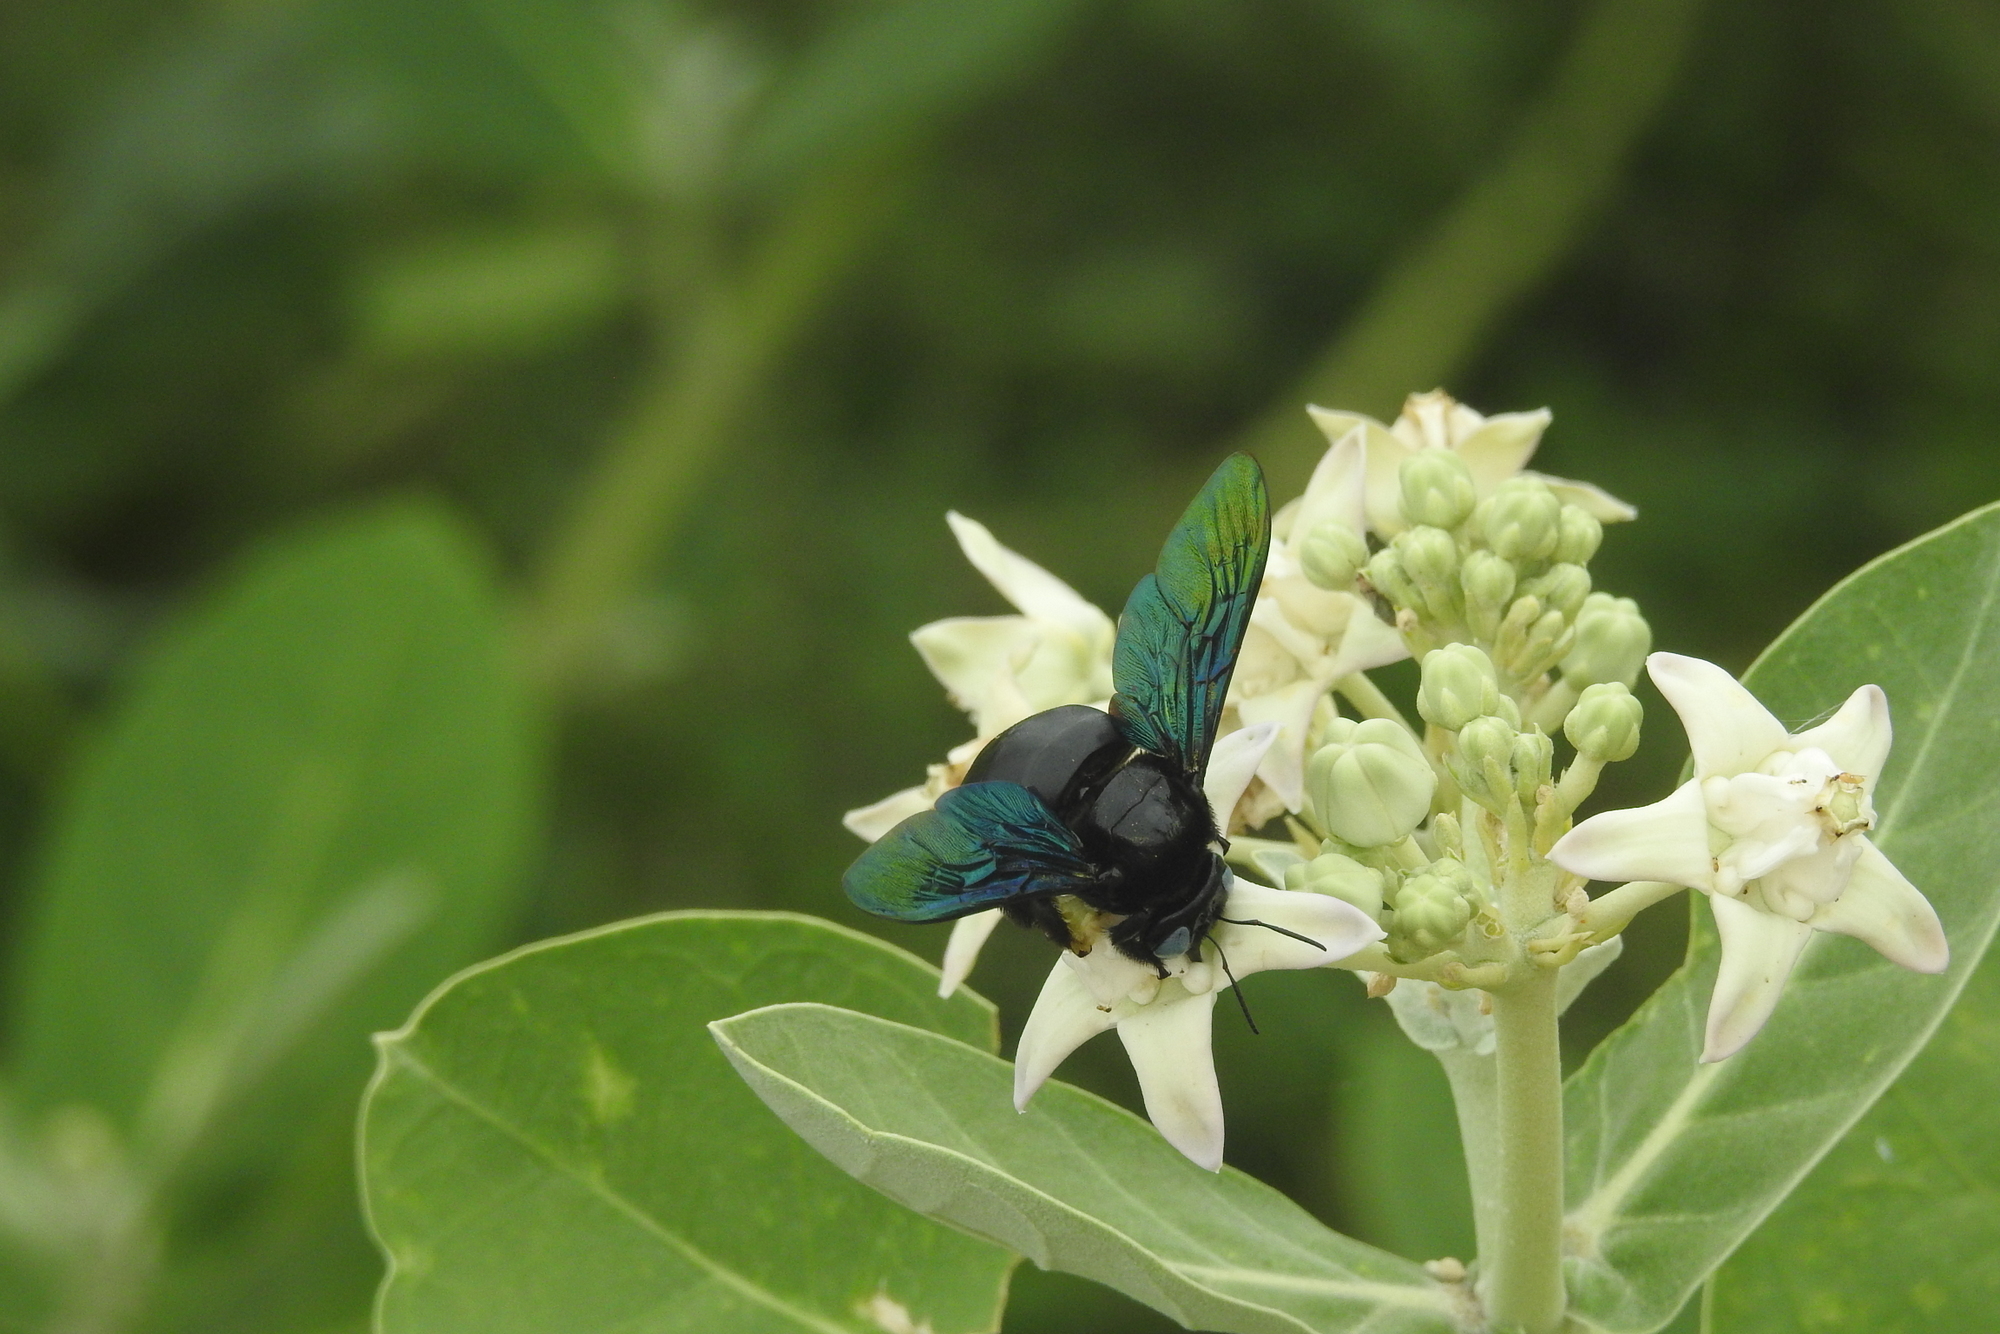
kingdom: Animalia
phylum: Arthropoda
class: Insecta
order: Hymenoptera
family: Apidae
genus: Xylocopa
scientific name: Xylocopa tenuiscapa
